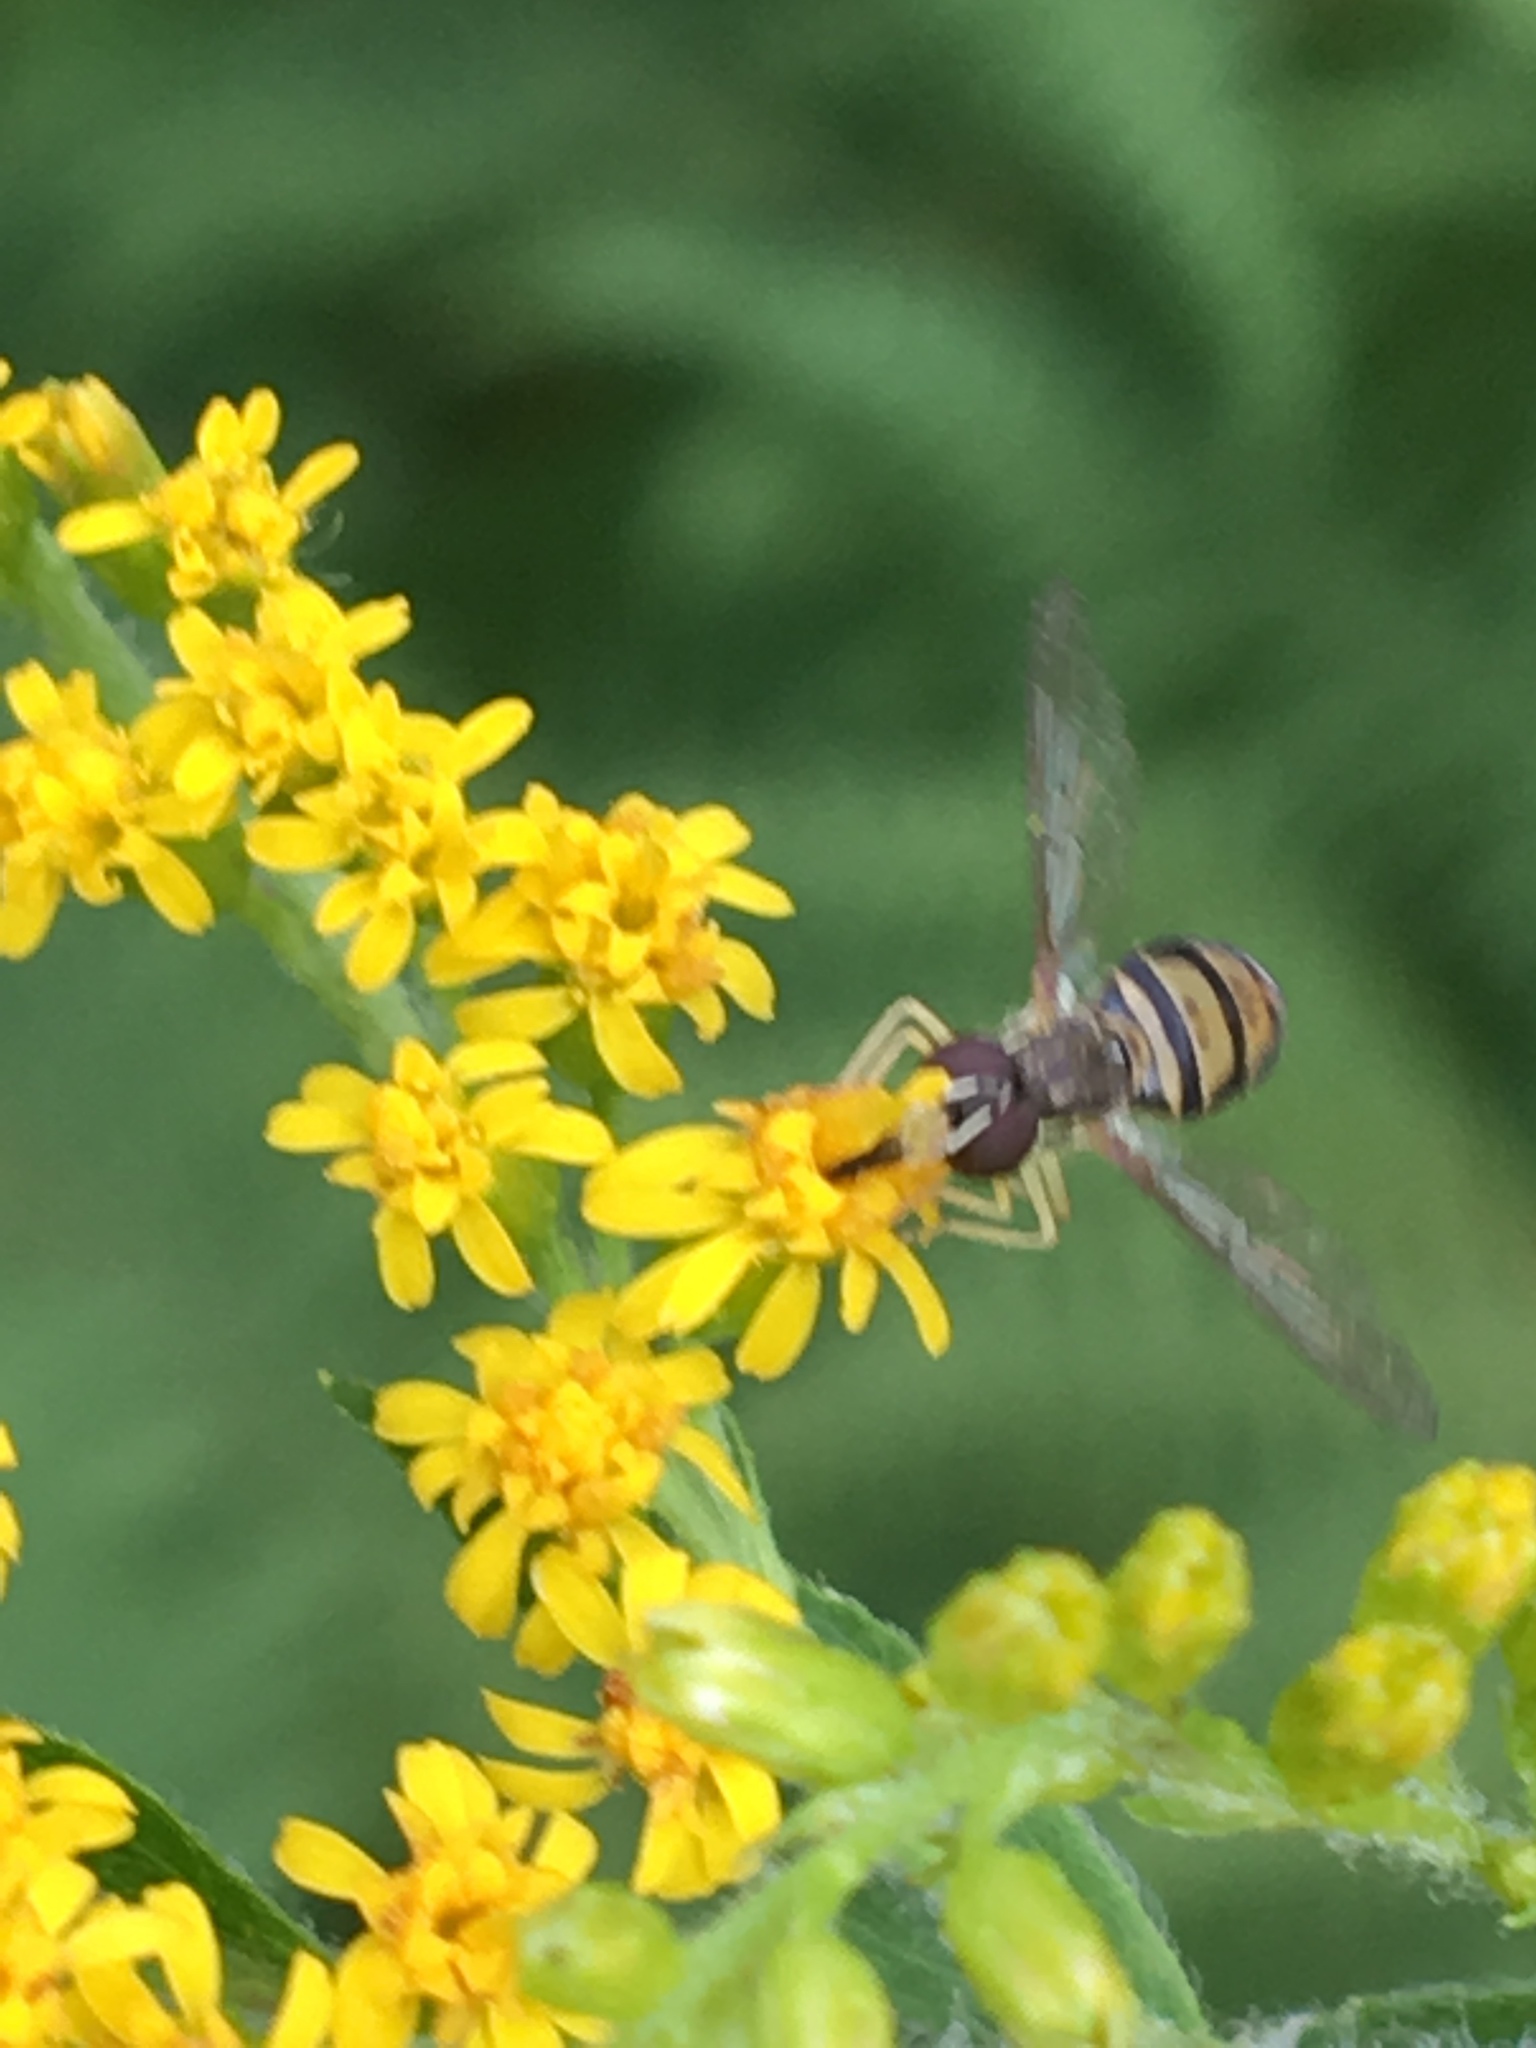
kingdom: Animalia
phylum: Arthropoda
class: Insecta
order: Diptera
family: Syrphidae
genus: Toxomerus
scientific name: Toxomerus marginatus
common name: Syrphid fly
